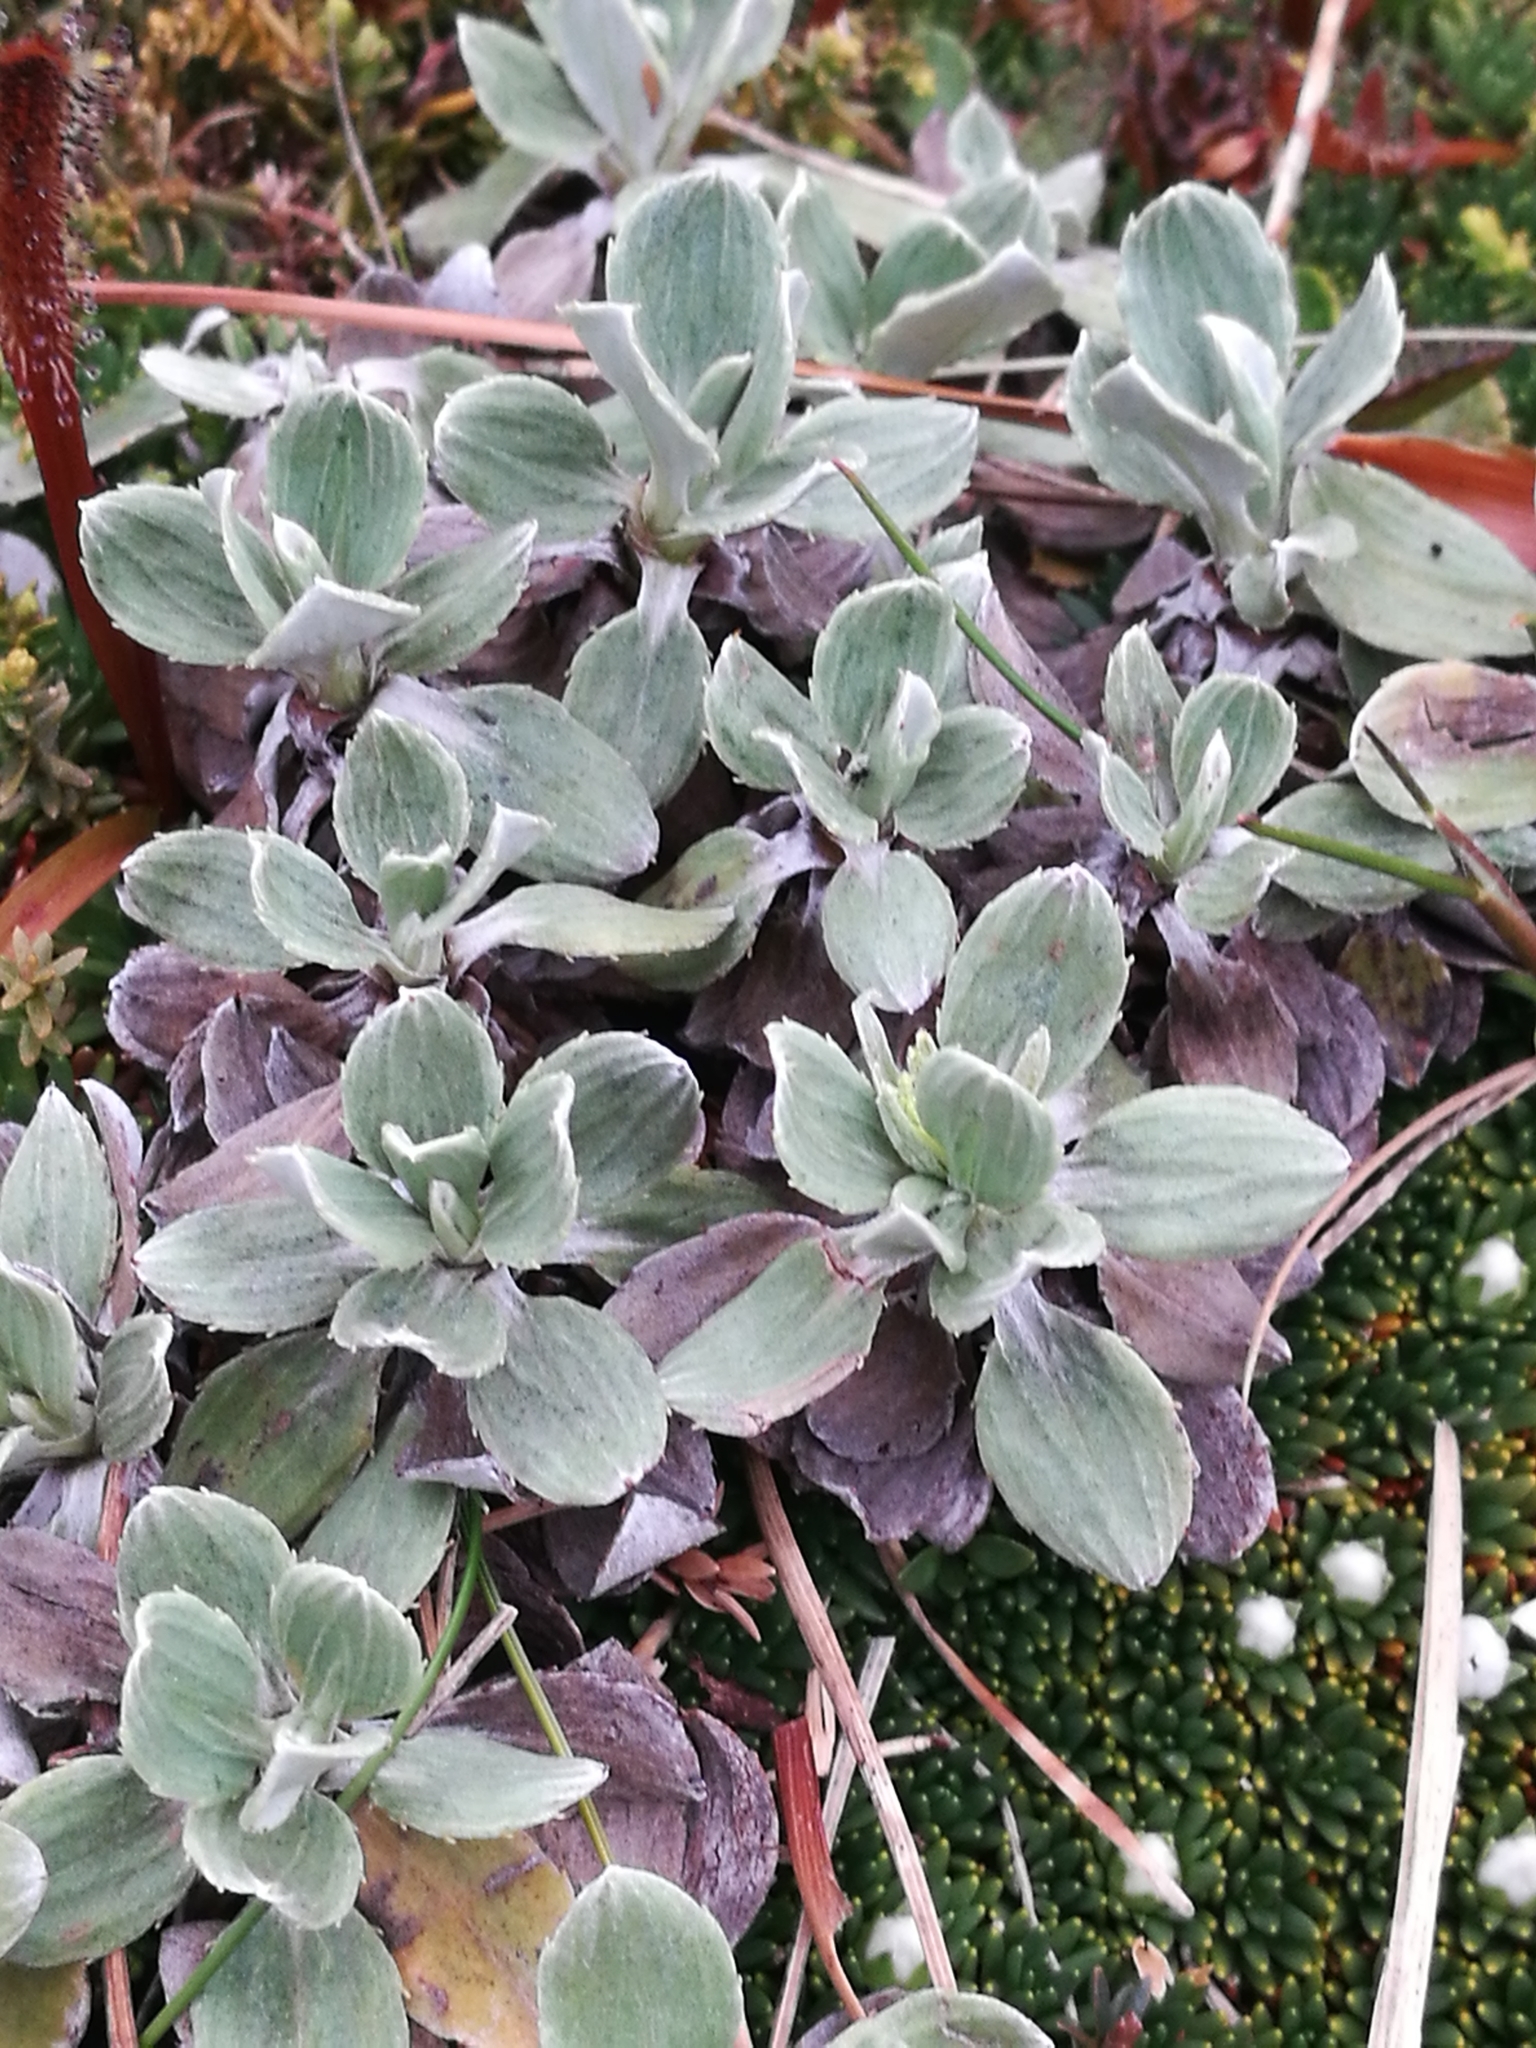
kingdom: Plantae
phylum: Tracheophyta
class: Magnoliopsida
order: Asterales
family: Asteraceae
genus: Celmisia
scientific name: Celmisia discolor
